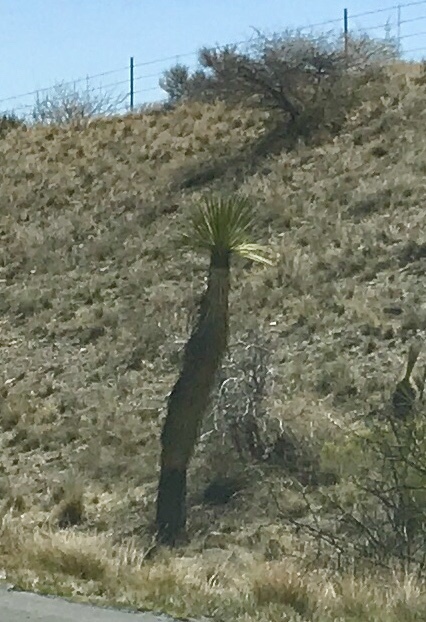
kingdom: Plantae
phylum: Tracheophyta
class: Liliopsida
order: Asparagales
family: Asparagaceae
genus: Yucca
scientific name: Yucca elata
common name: Palmella
